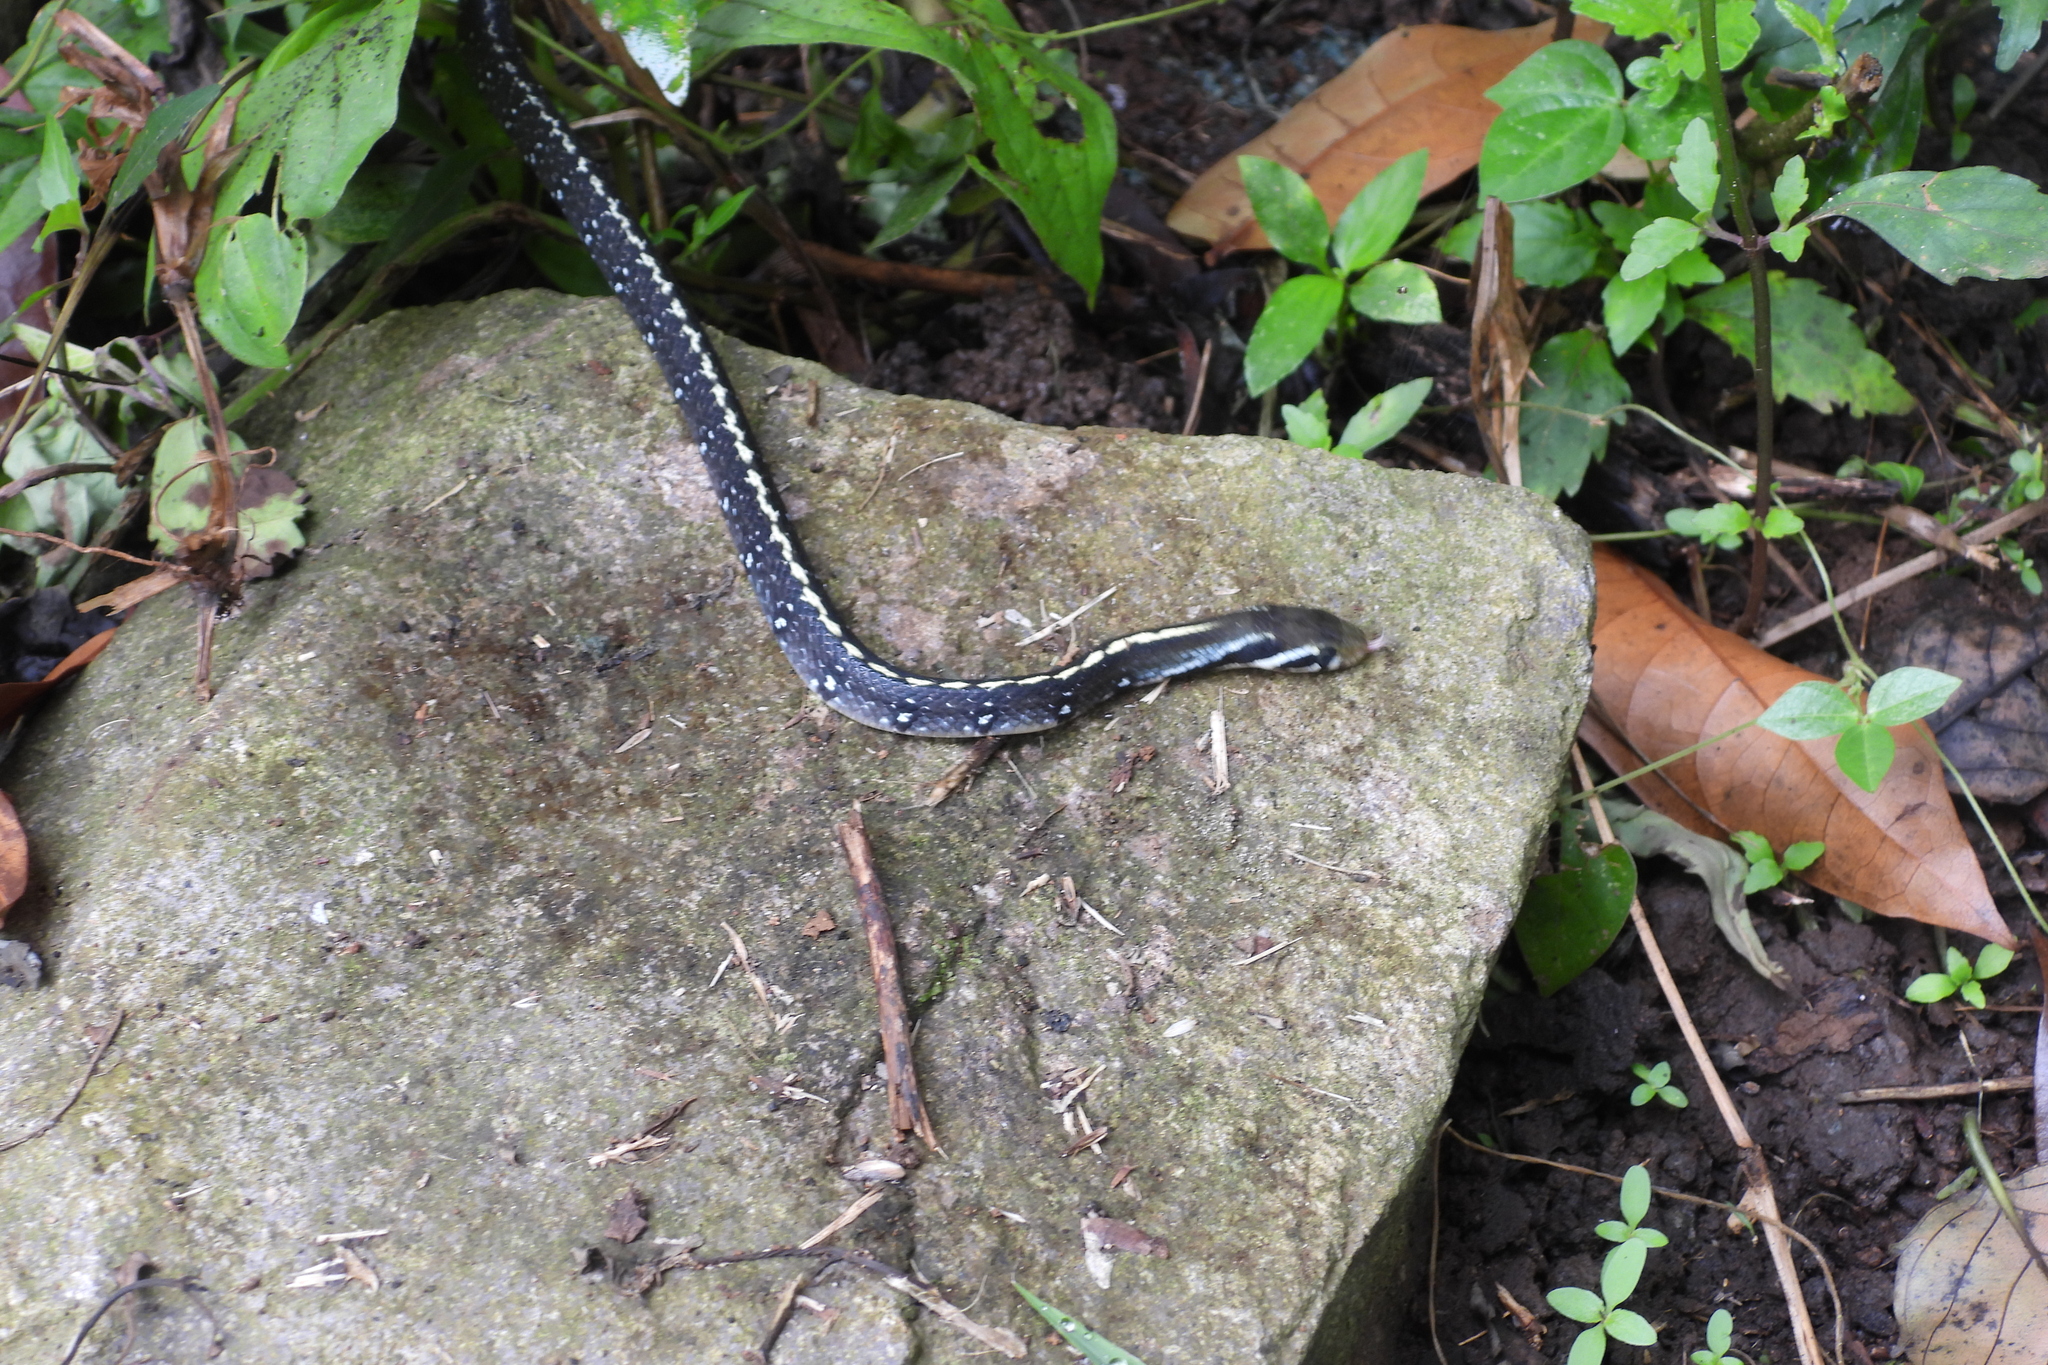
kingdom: Animalia
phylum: Chordata
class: Squamata
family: Colubridae
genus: Coelognathus
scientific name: Coelognathus flavolineatus
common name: Black copper rat snake
